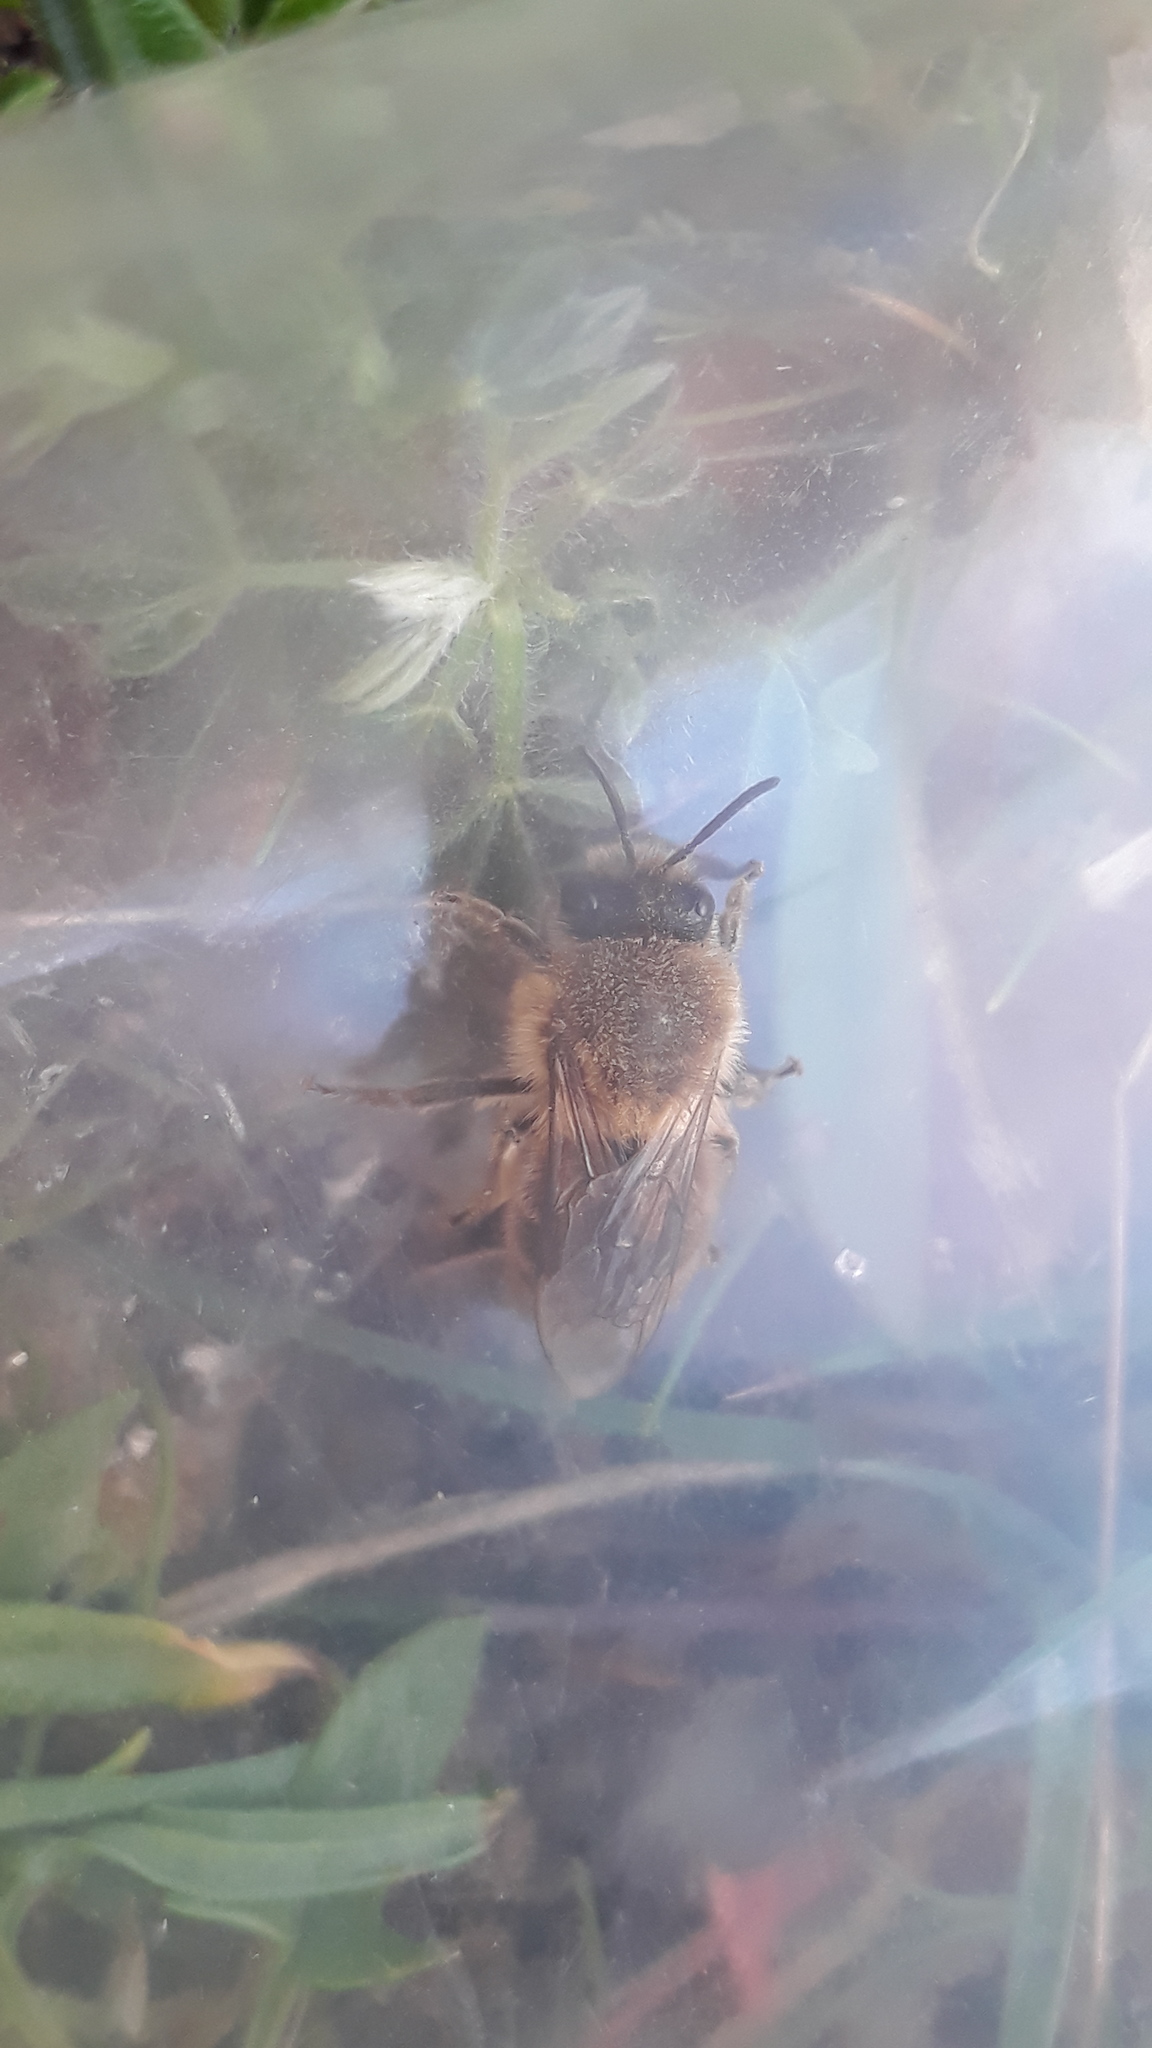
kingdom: Animalia
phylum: Arthropoda
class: Insecta
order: Hymenoptera
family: Colletidae
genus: Colletes
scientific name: Colletes cunicularius
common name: Early colletes
